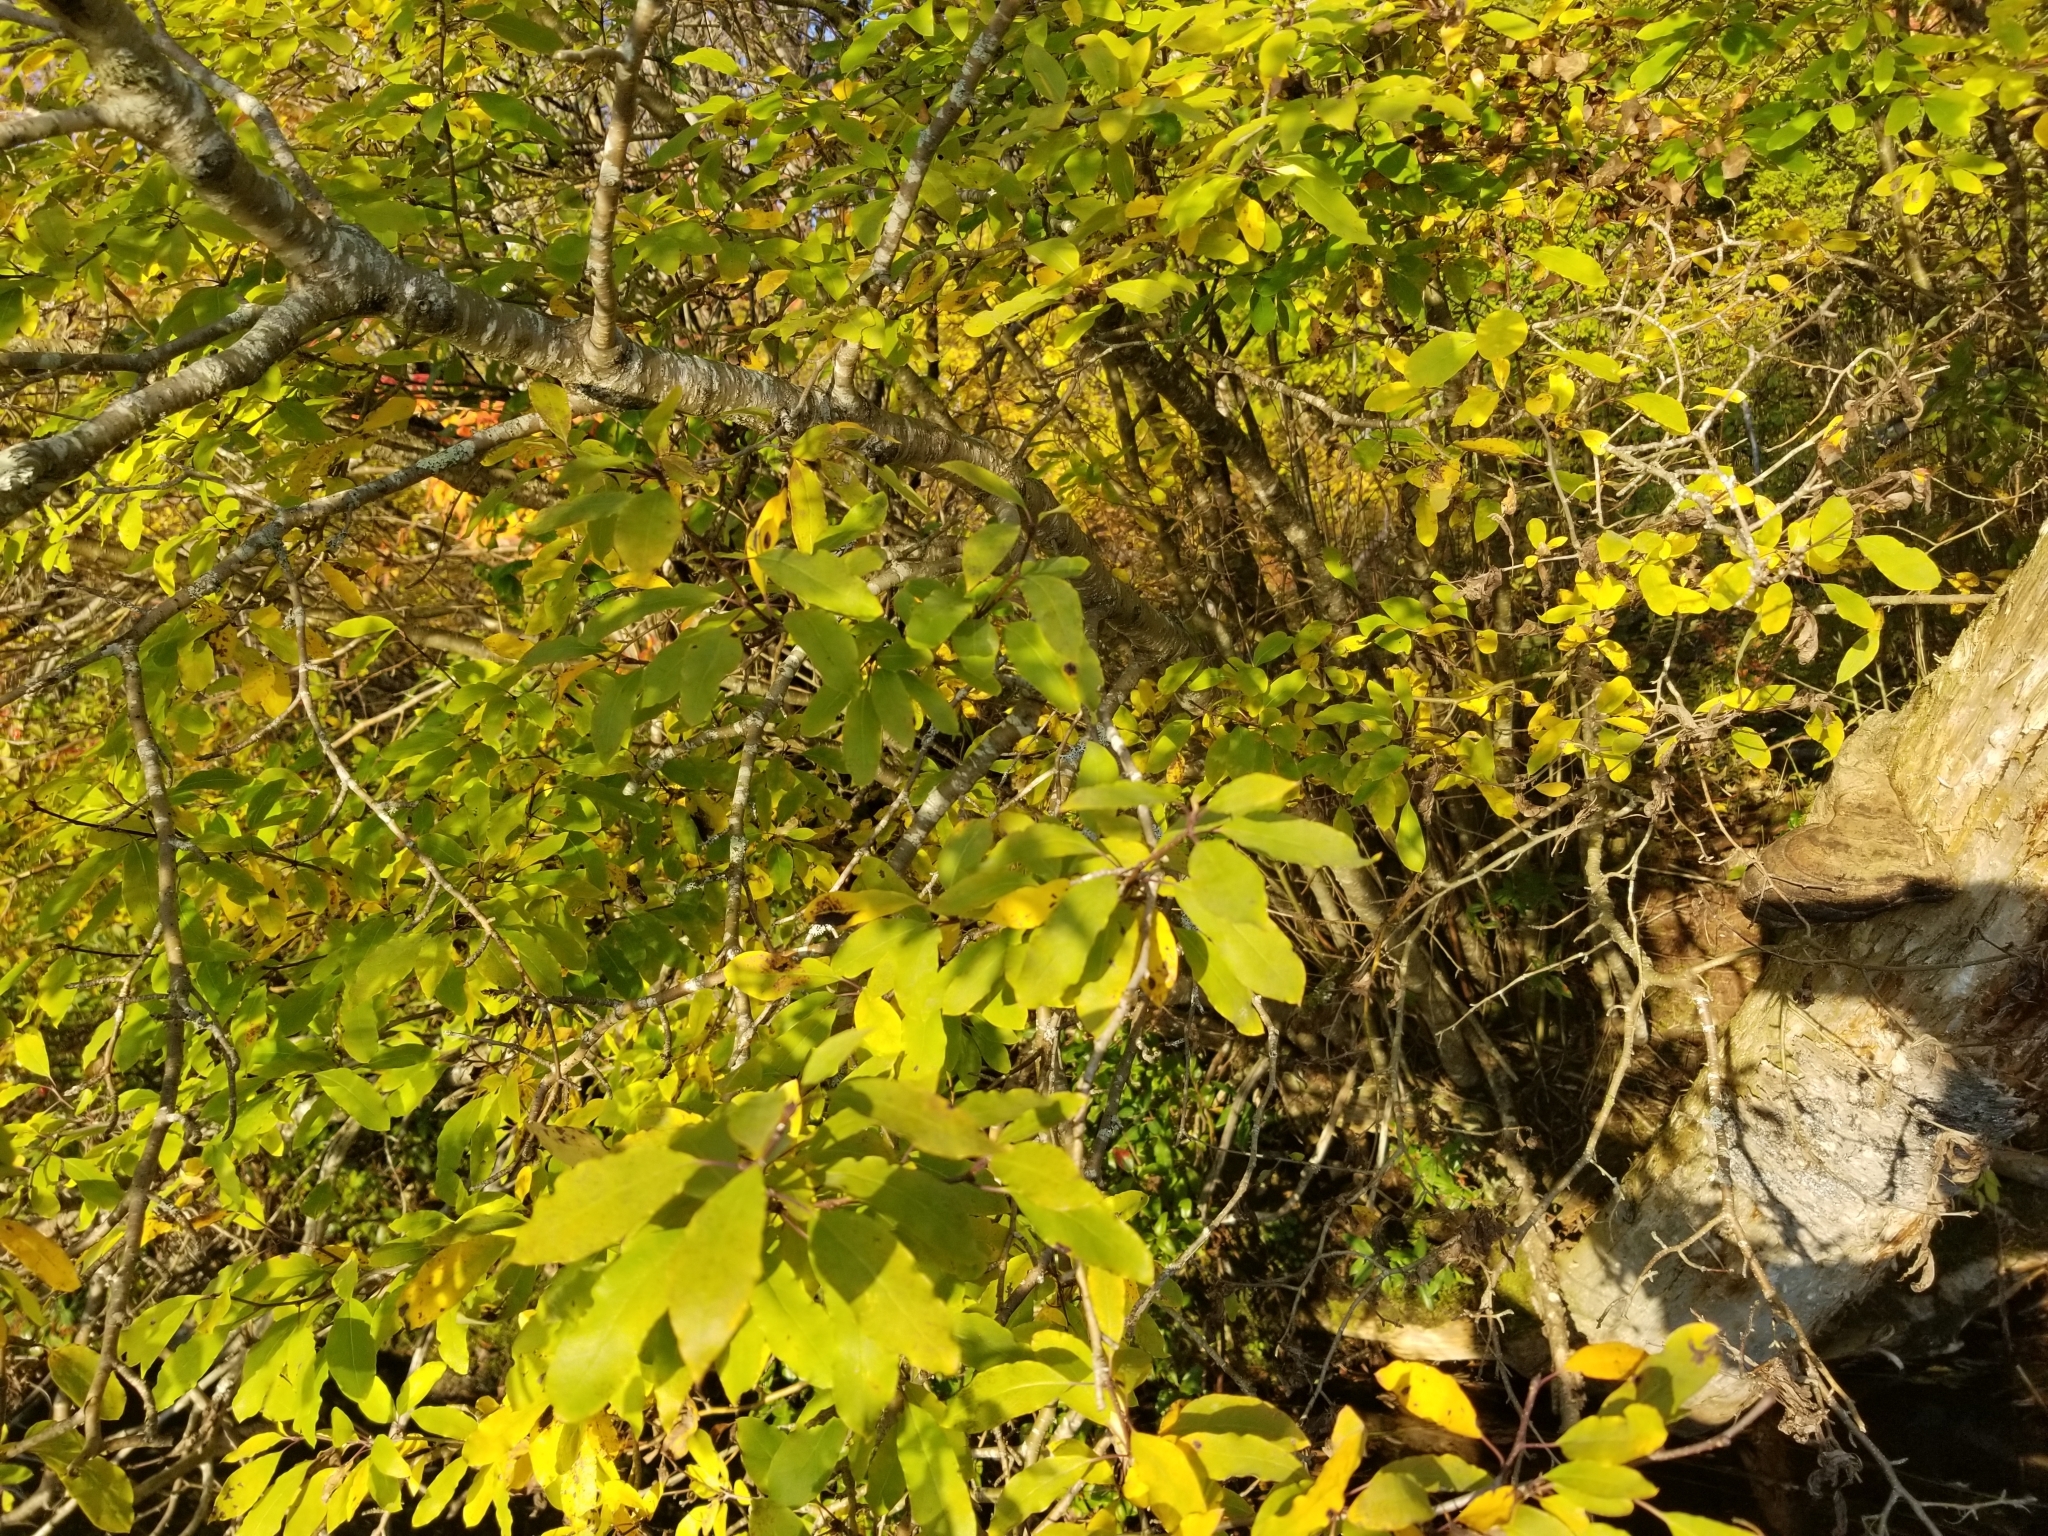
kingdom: Plantae
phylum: Tracheophyta
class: Magnoliopsida
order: Aquifoliales
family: Aquifoliaceae
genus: Ilex
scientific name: Ilex mucronata
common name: Catberry
